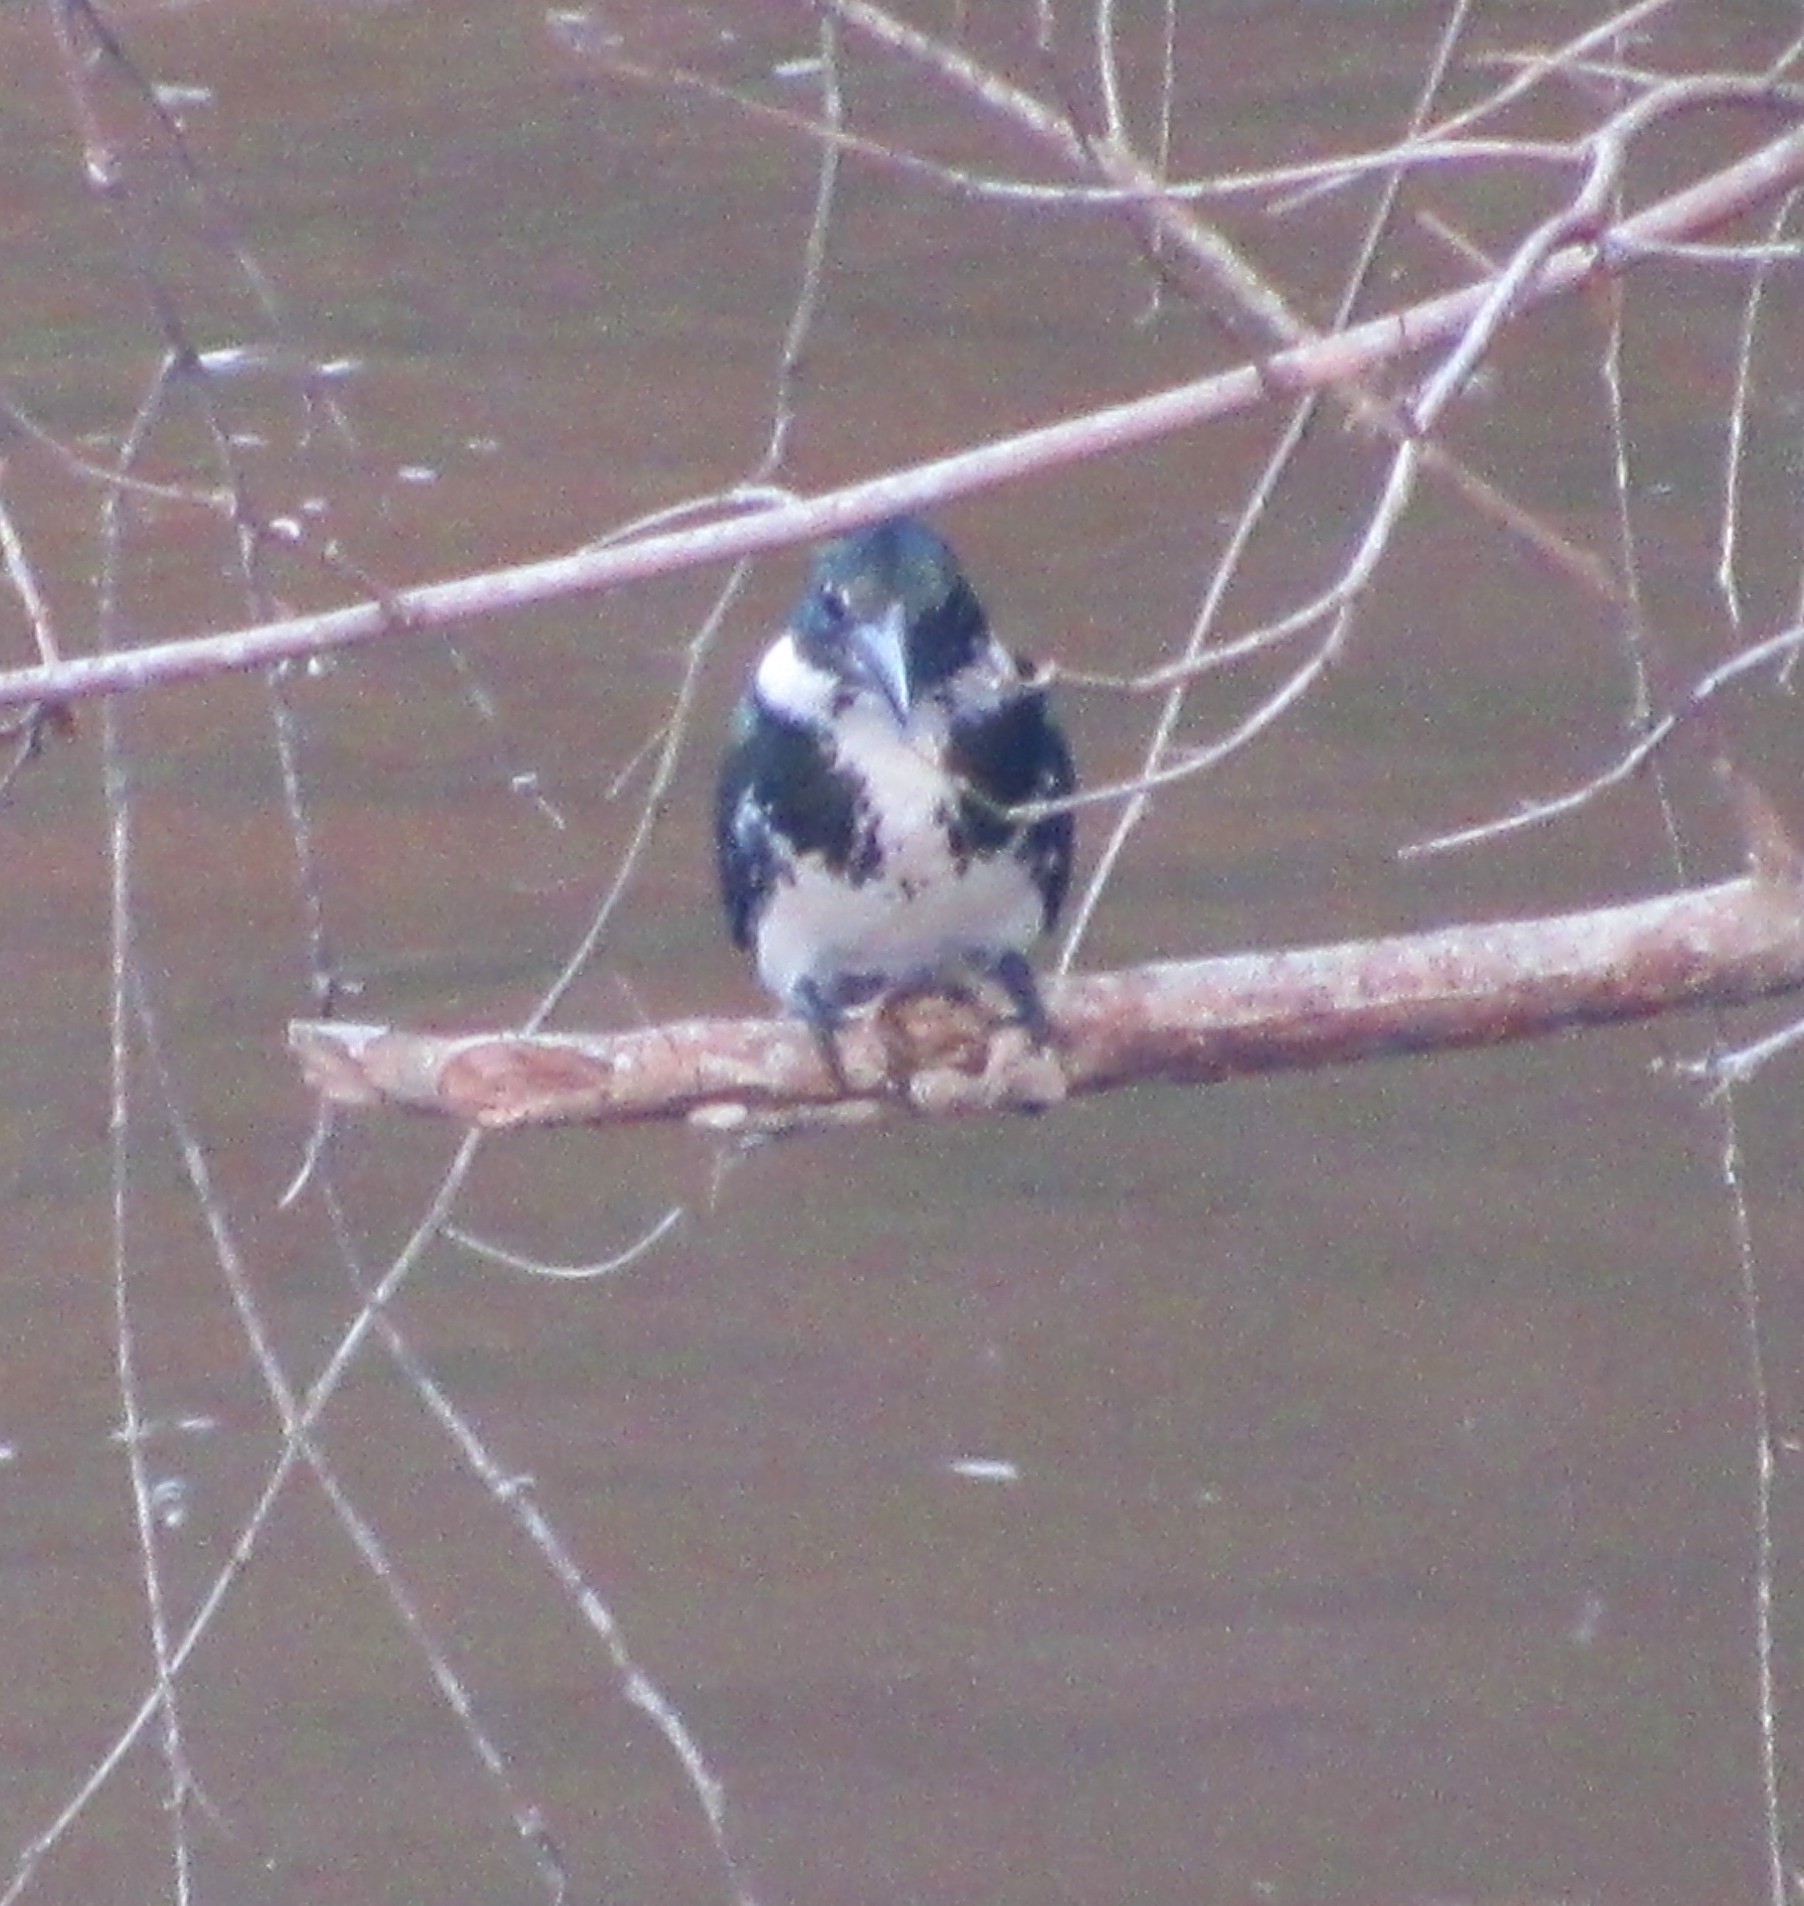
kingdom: Animalia
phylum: Chordata
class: Aves
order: Coraciiformes
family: Alcedinidae
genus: Chloroceryle
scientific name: Chloroceryle amazona
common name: Amazon kingfisher
